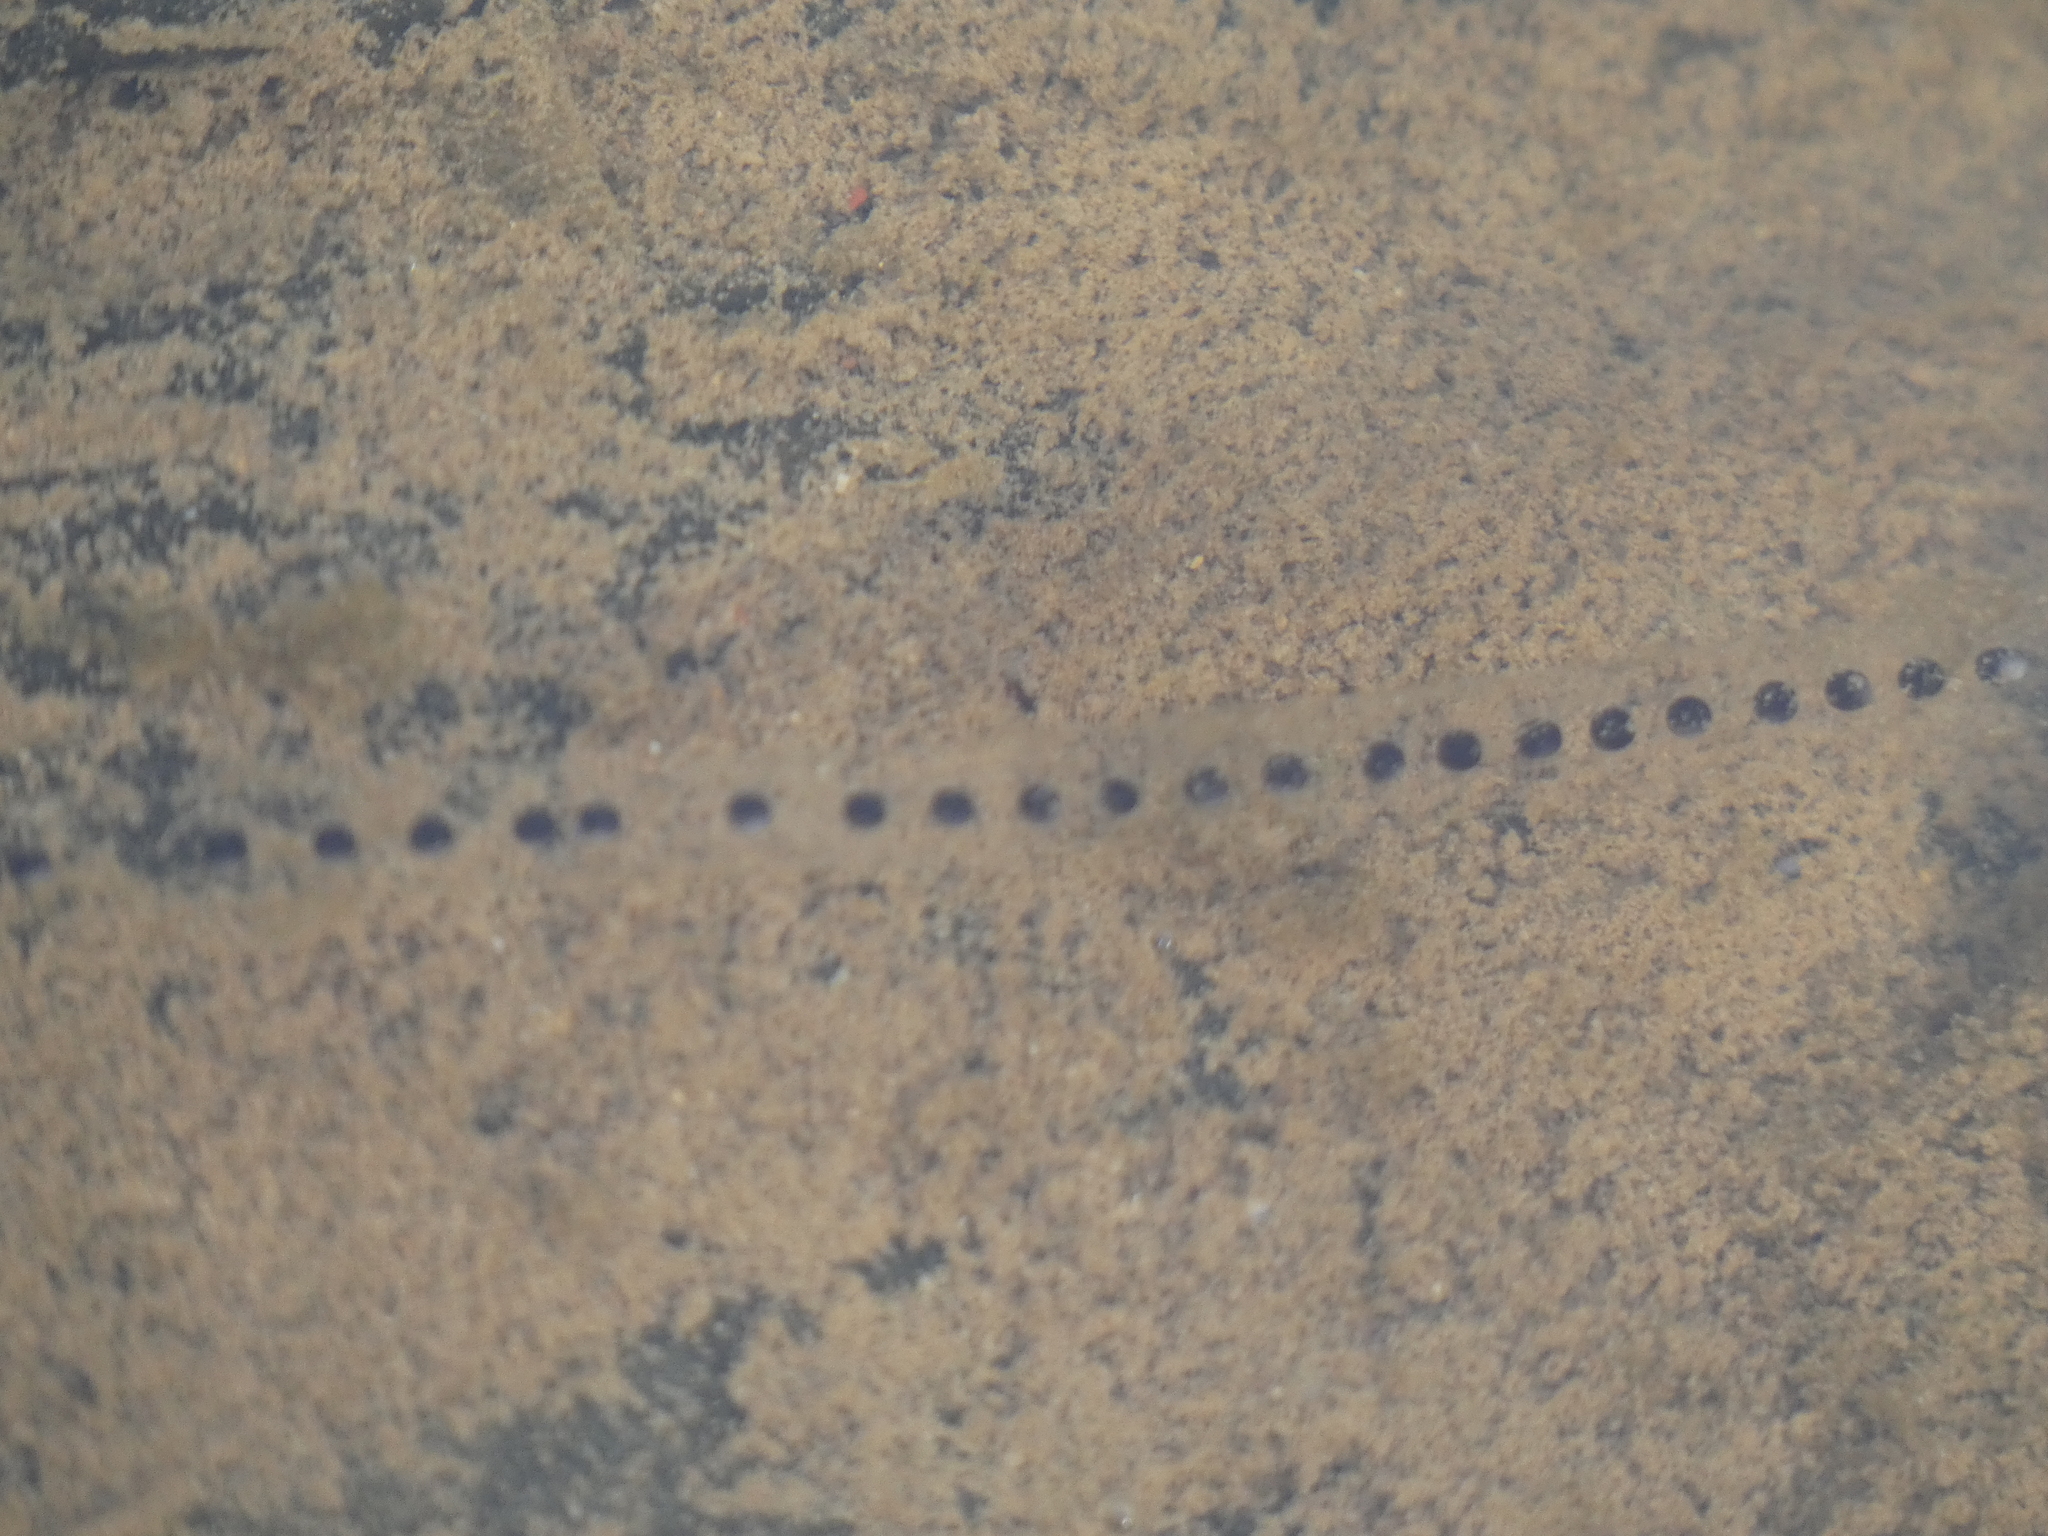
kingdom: Animalia
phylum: Chordata
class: Amphibia
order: Anura
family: Bufonidae
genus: Anaxyrus
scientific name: Anaxyrus americanus
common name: American toad
